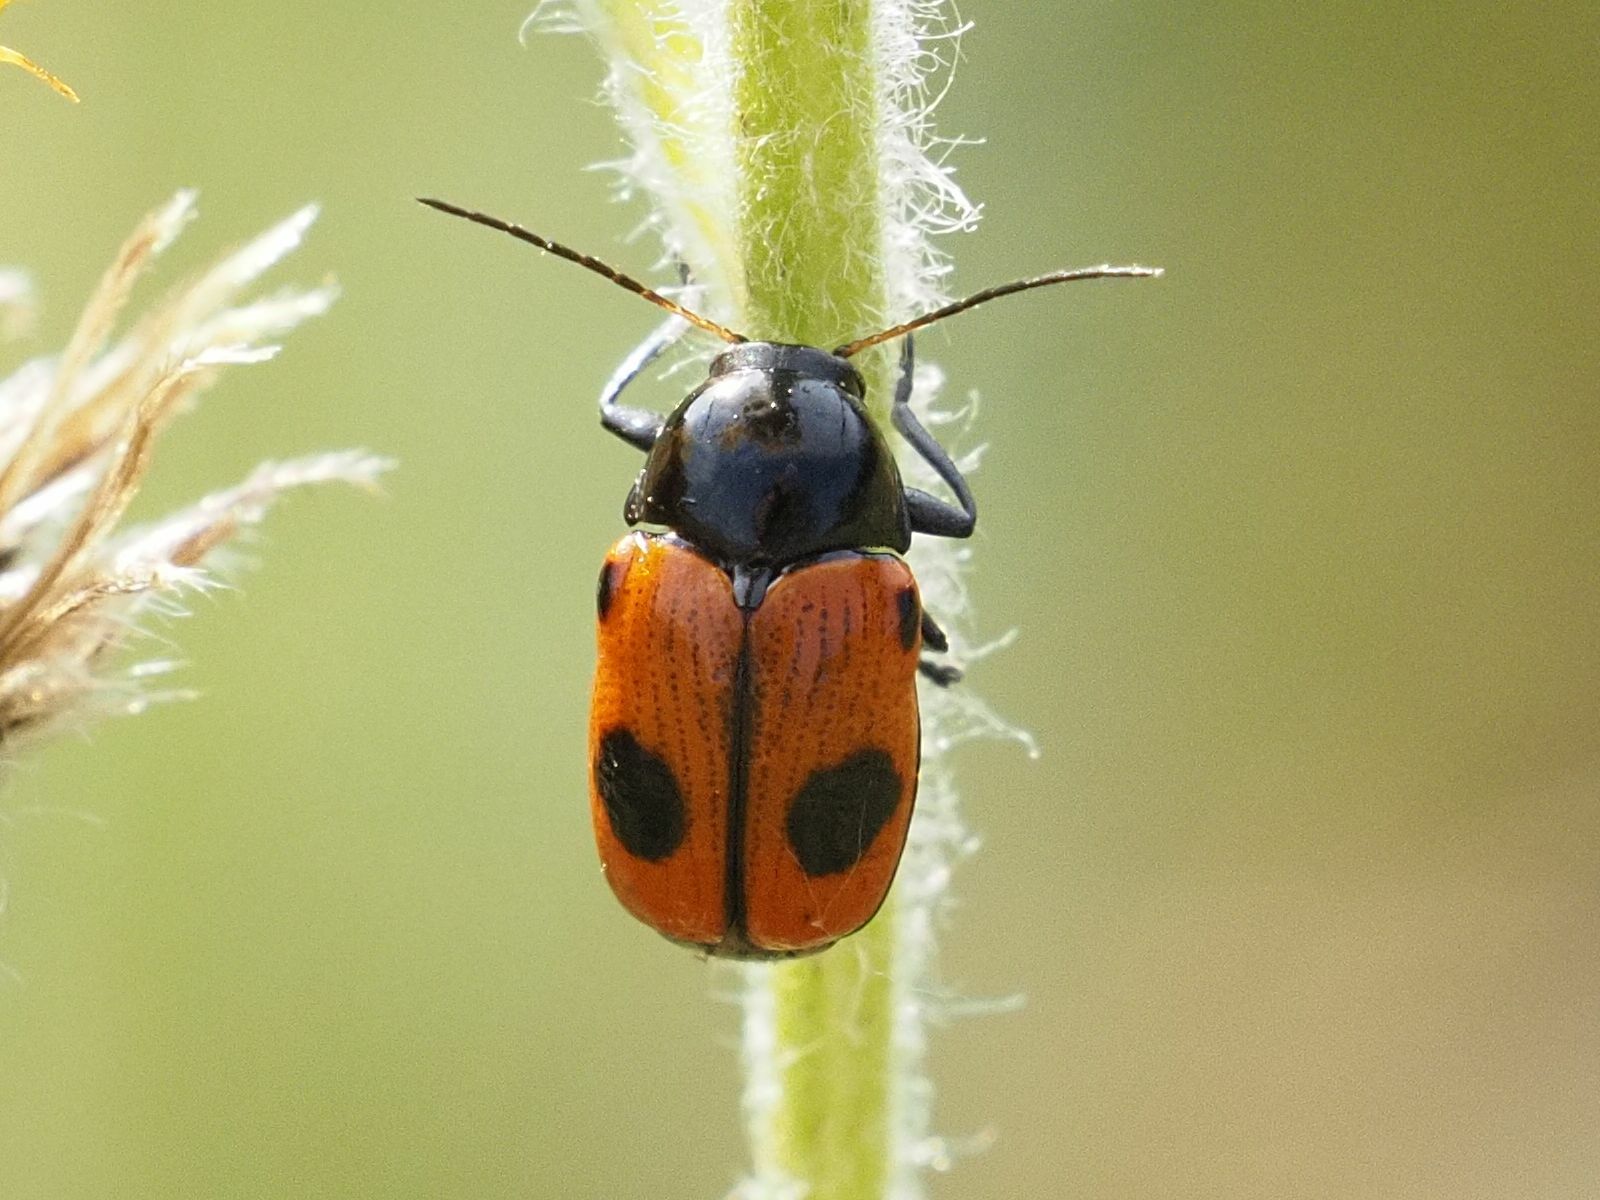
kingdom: Animalia
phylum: Arthropoda
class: Insecta
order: Coleoptera
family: Chrysomelidae
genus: Chiridopsis
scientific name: Chiridopsis bipunctata
